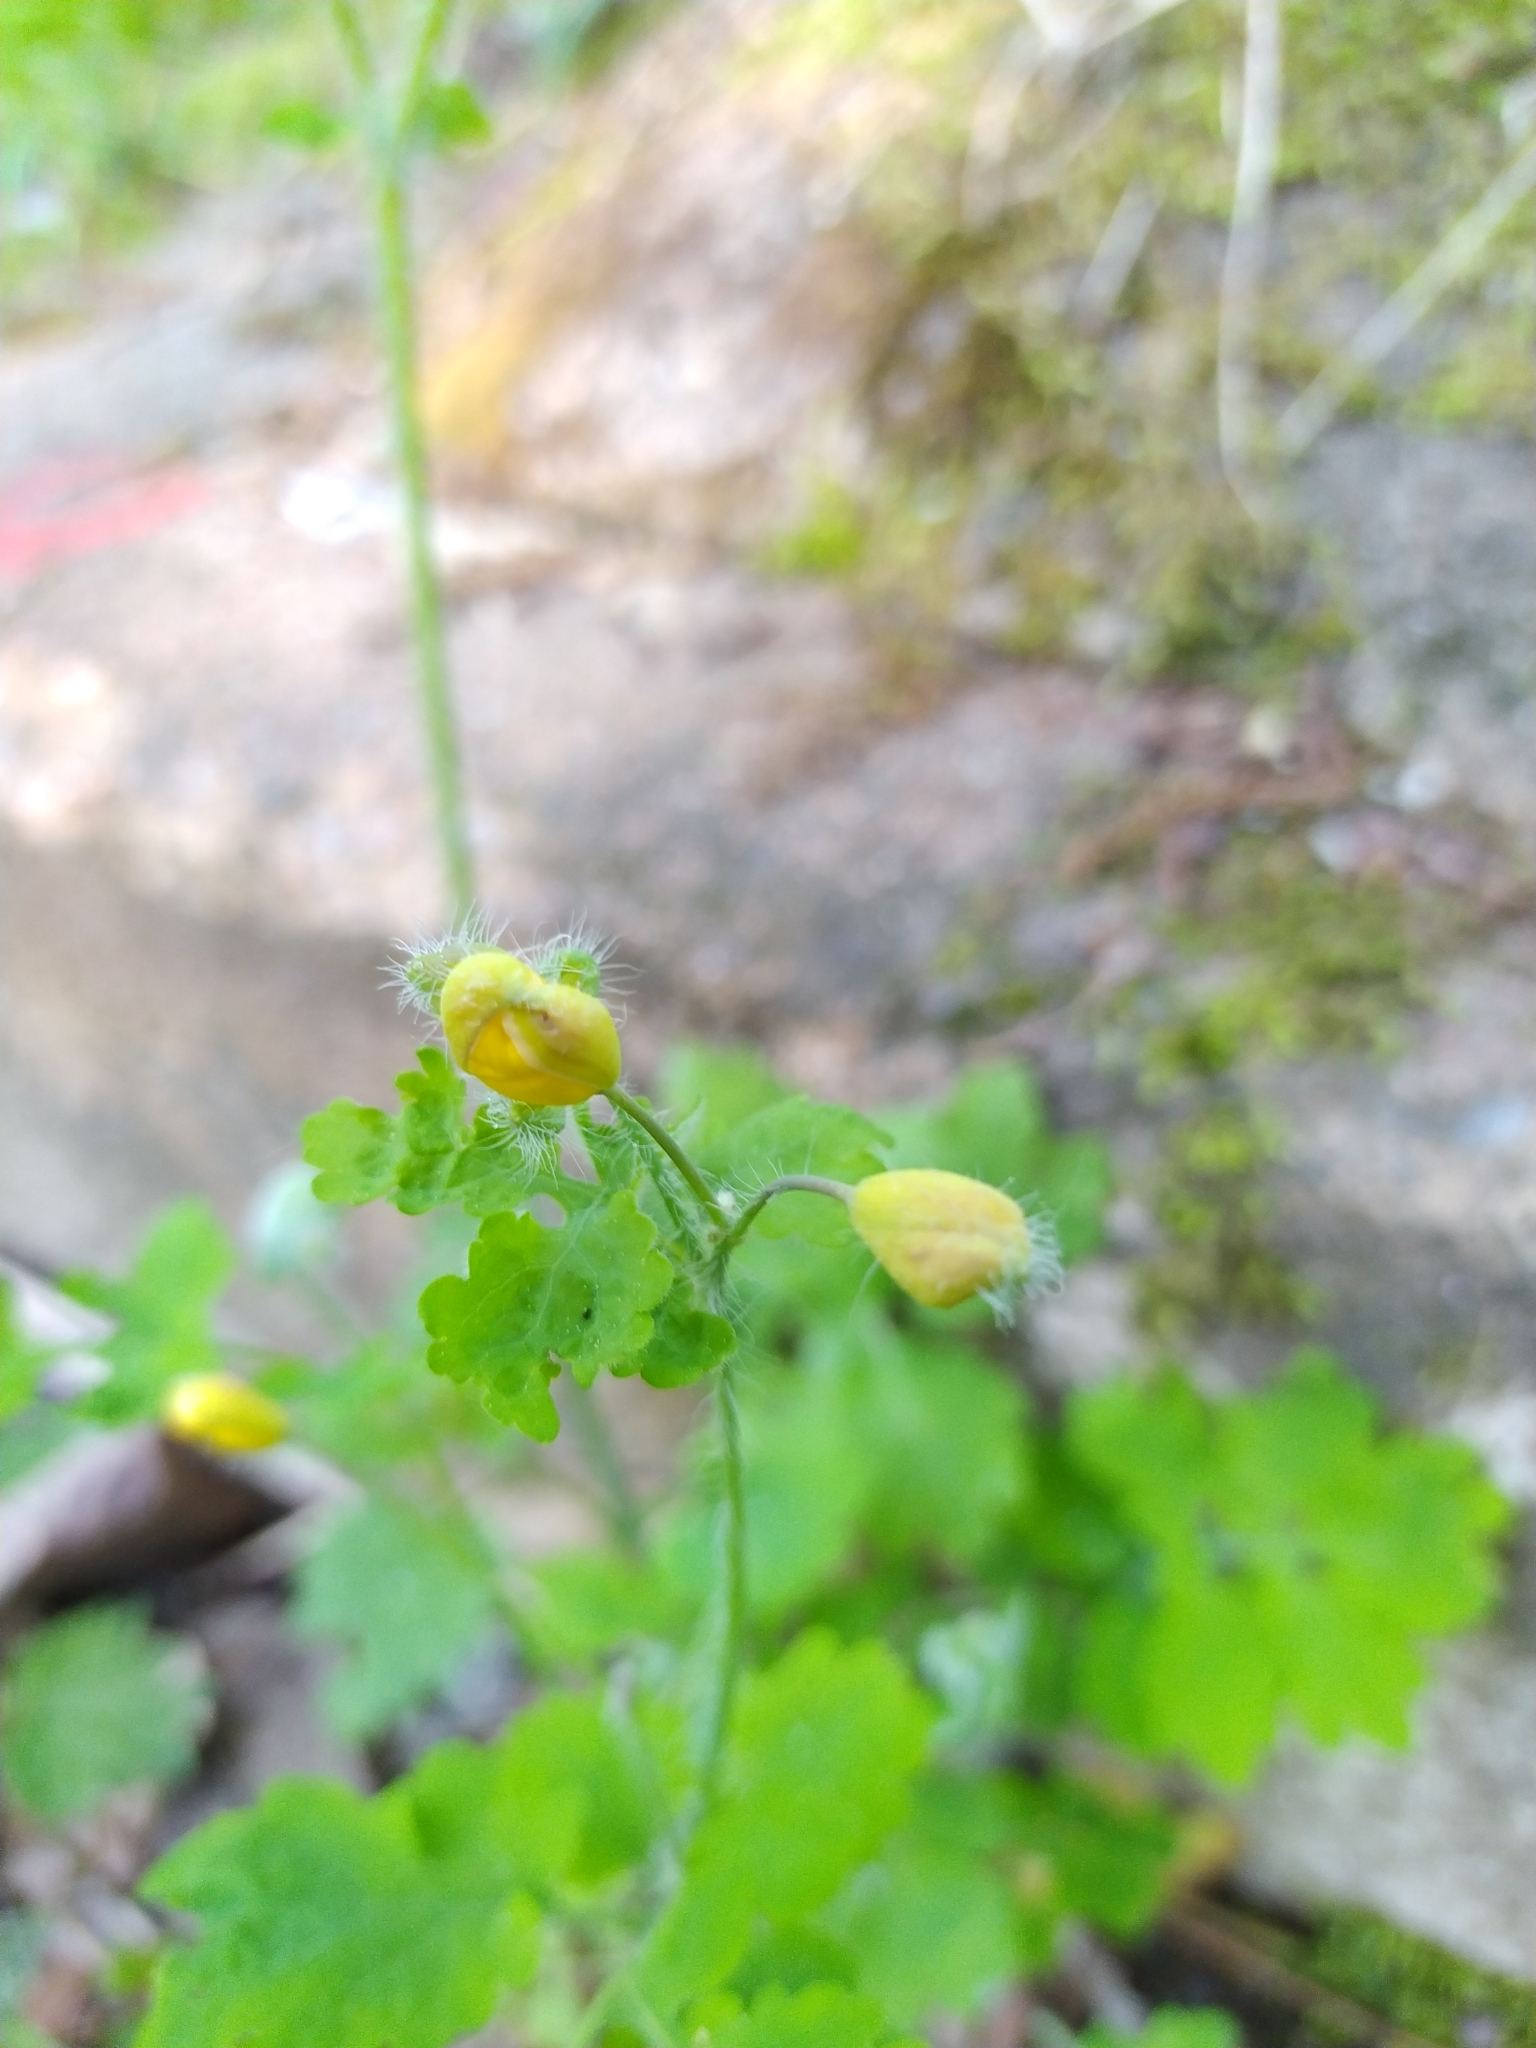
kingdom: Plantae
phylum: Tracheophyta
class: Magnoliopsida
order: Ranunculales
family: Papaveraceae
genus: Chelidonium
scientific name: Chelidonium majus
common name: Greater celandine
